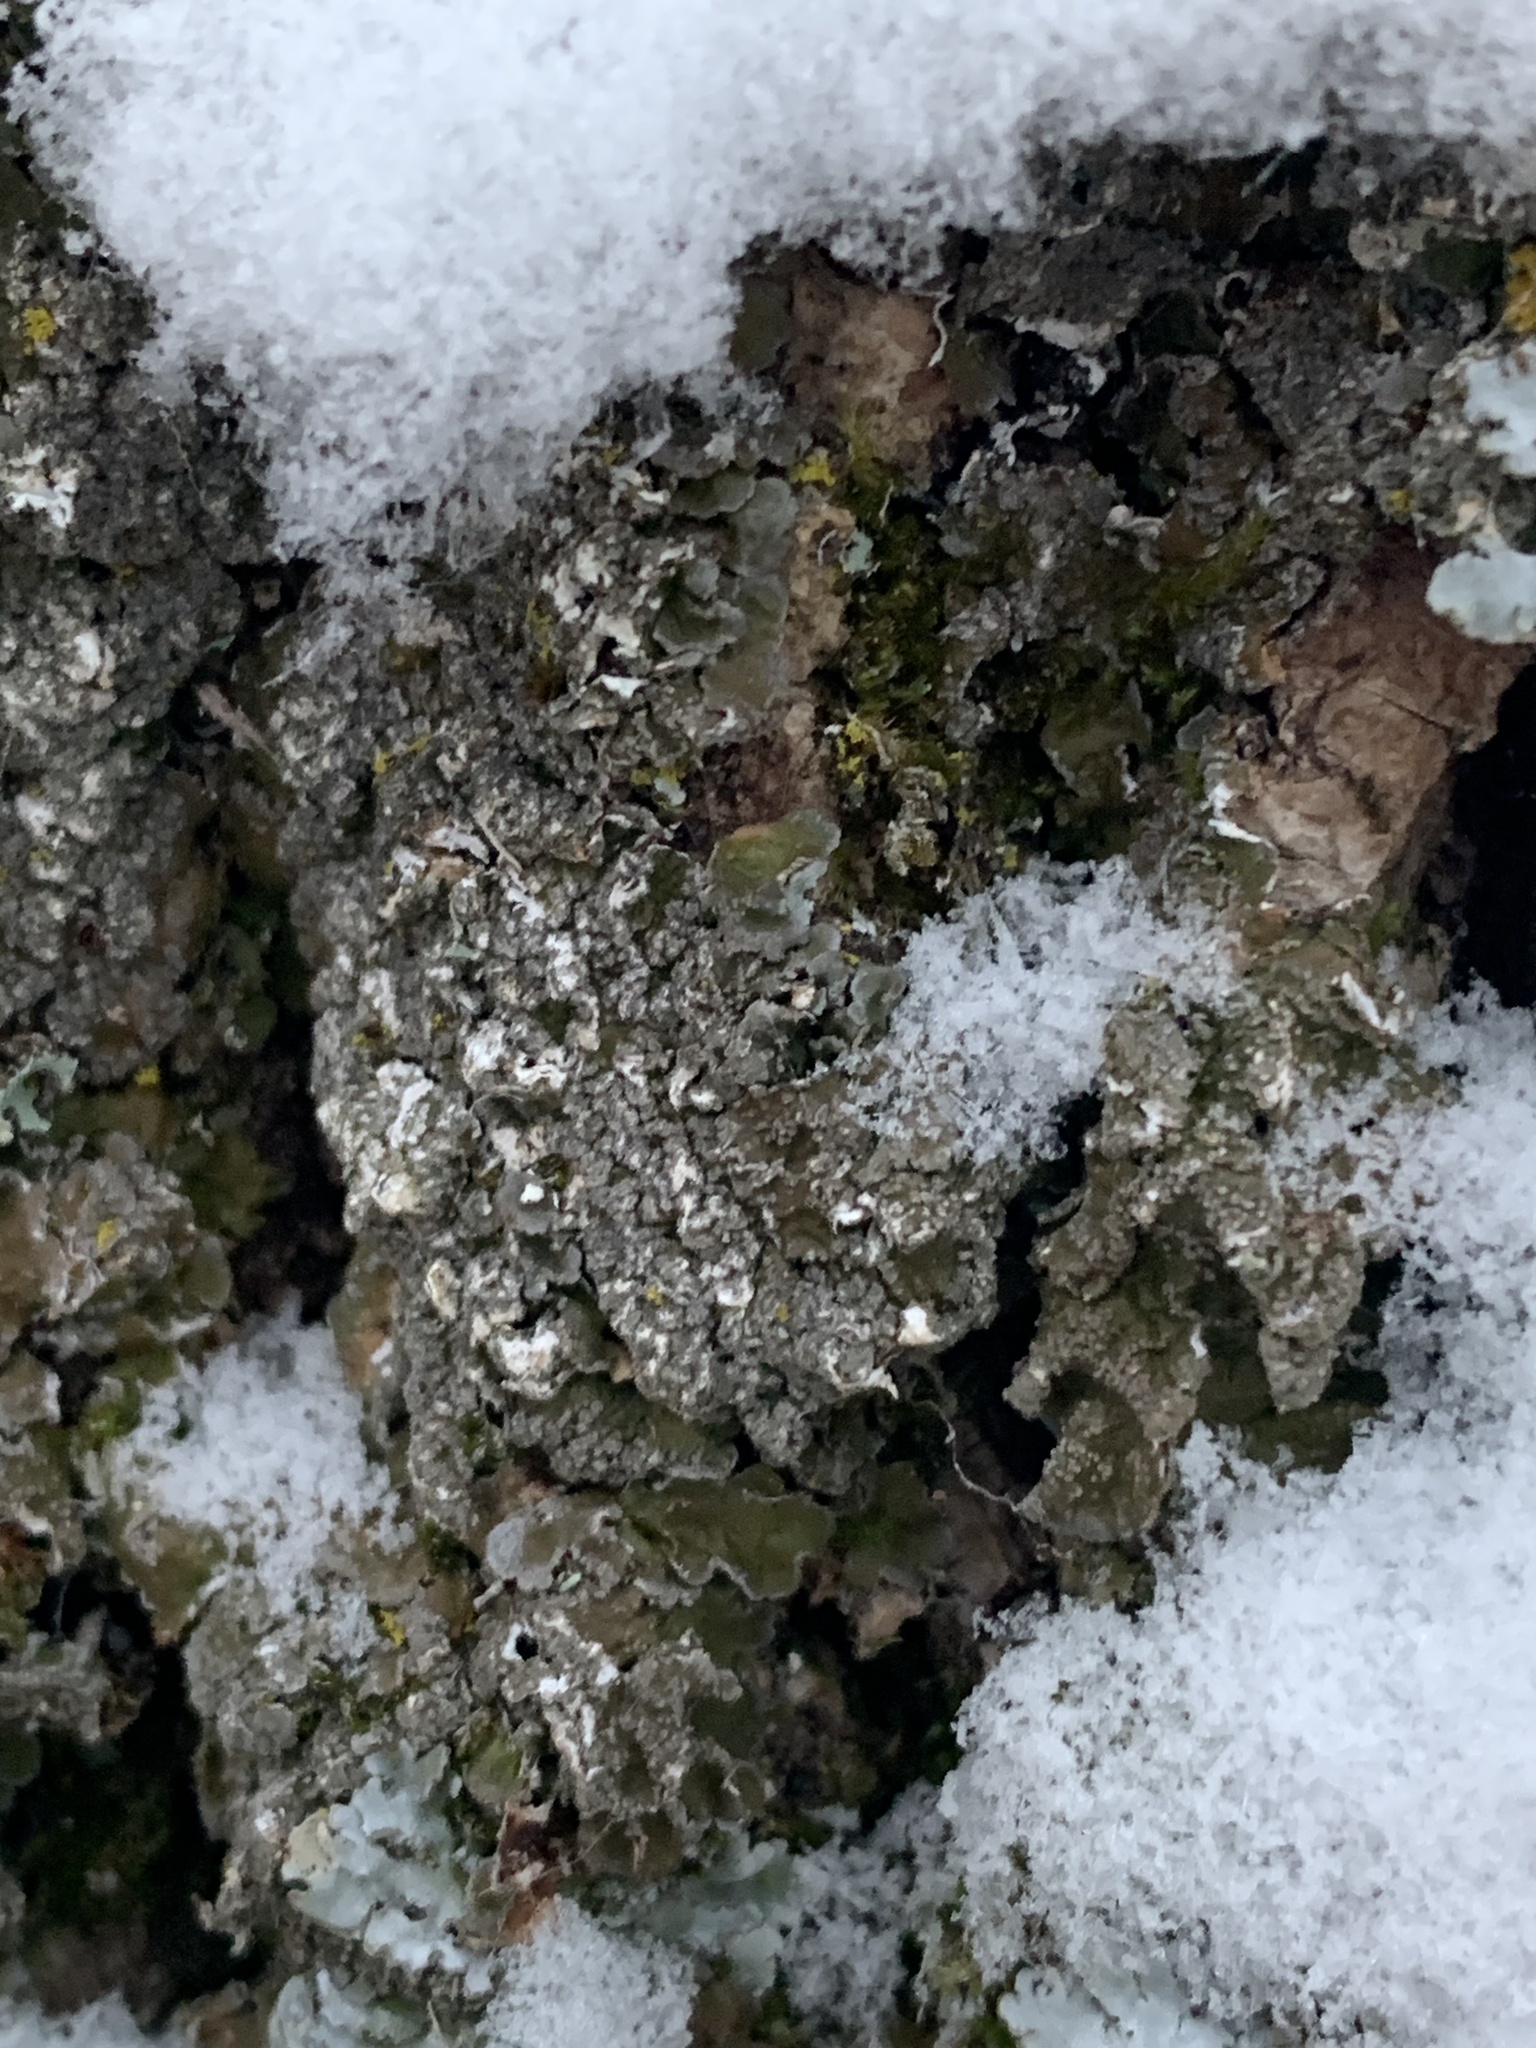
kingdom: Fungi
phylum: Ascomycota
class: Lecanoromycetes
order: Lecanorales
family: Parmeliaceae
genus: Melanelixia
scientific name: Melanelixia subargentifera
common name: Whiskered camouflage lichen
